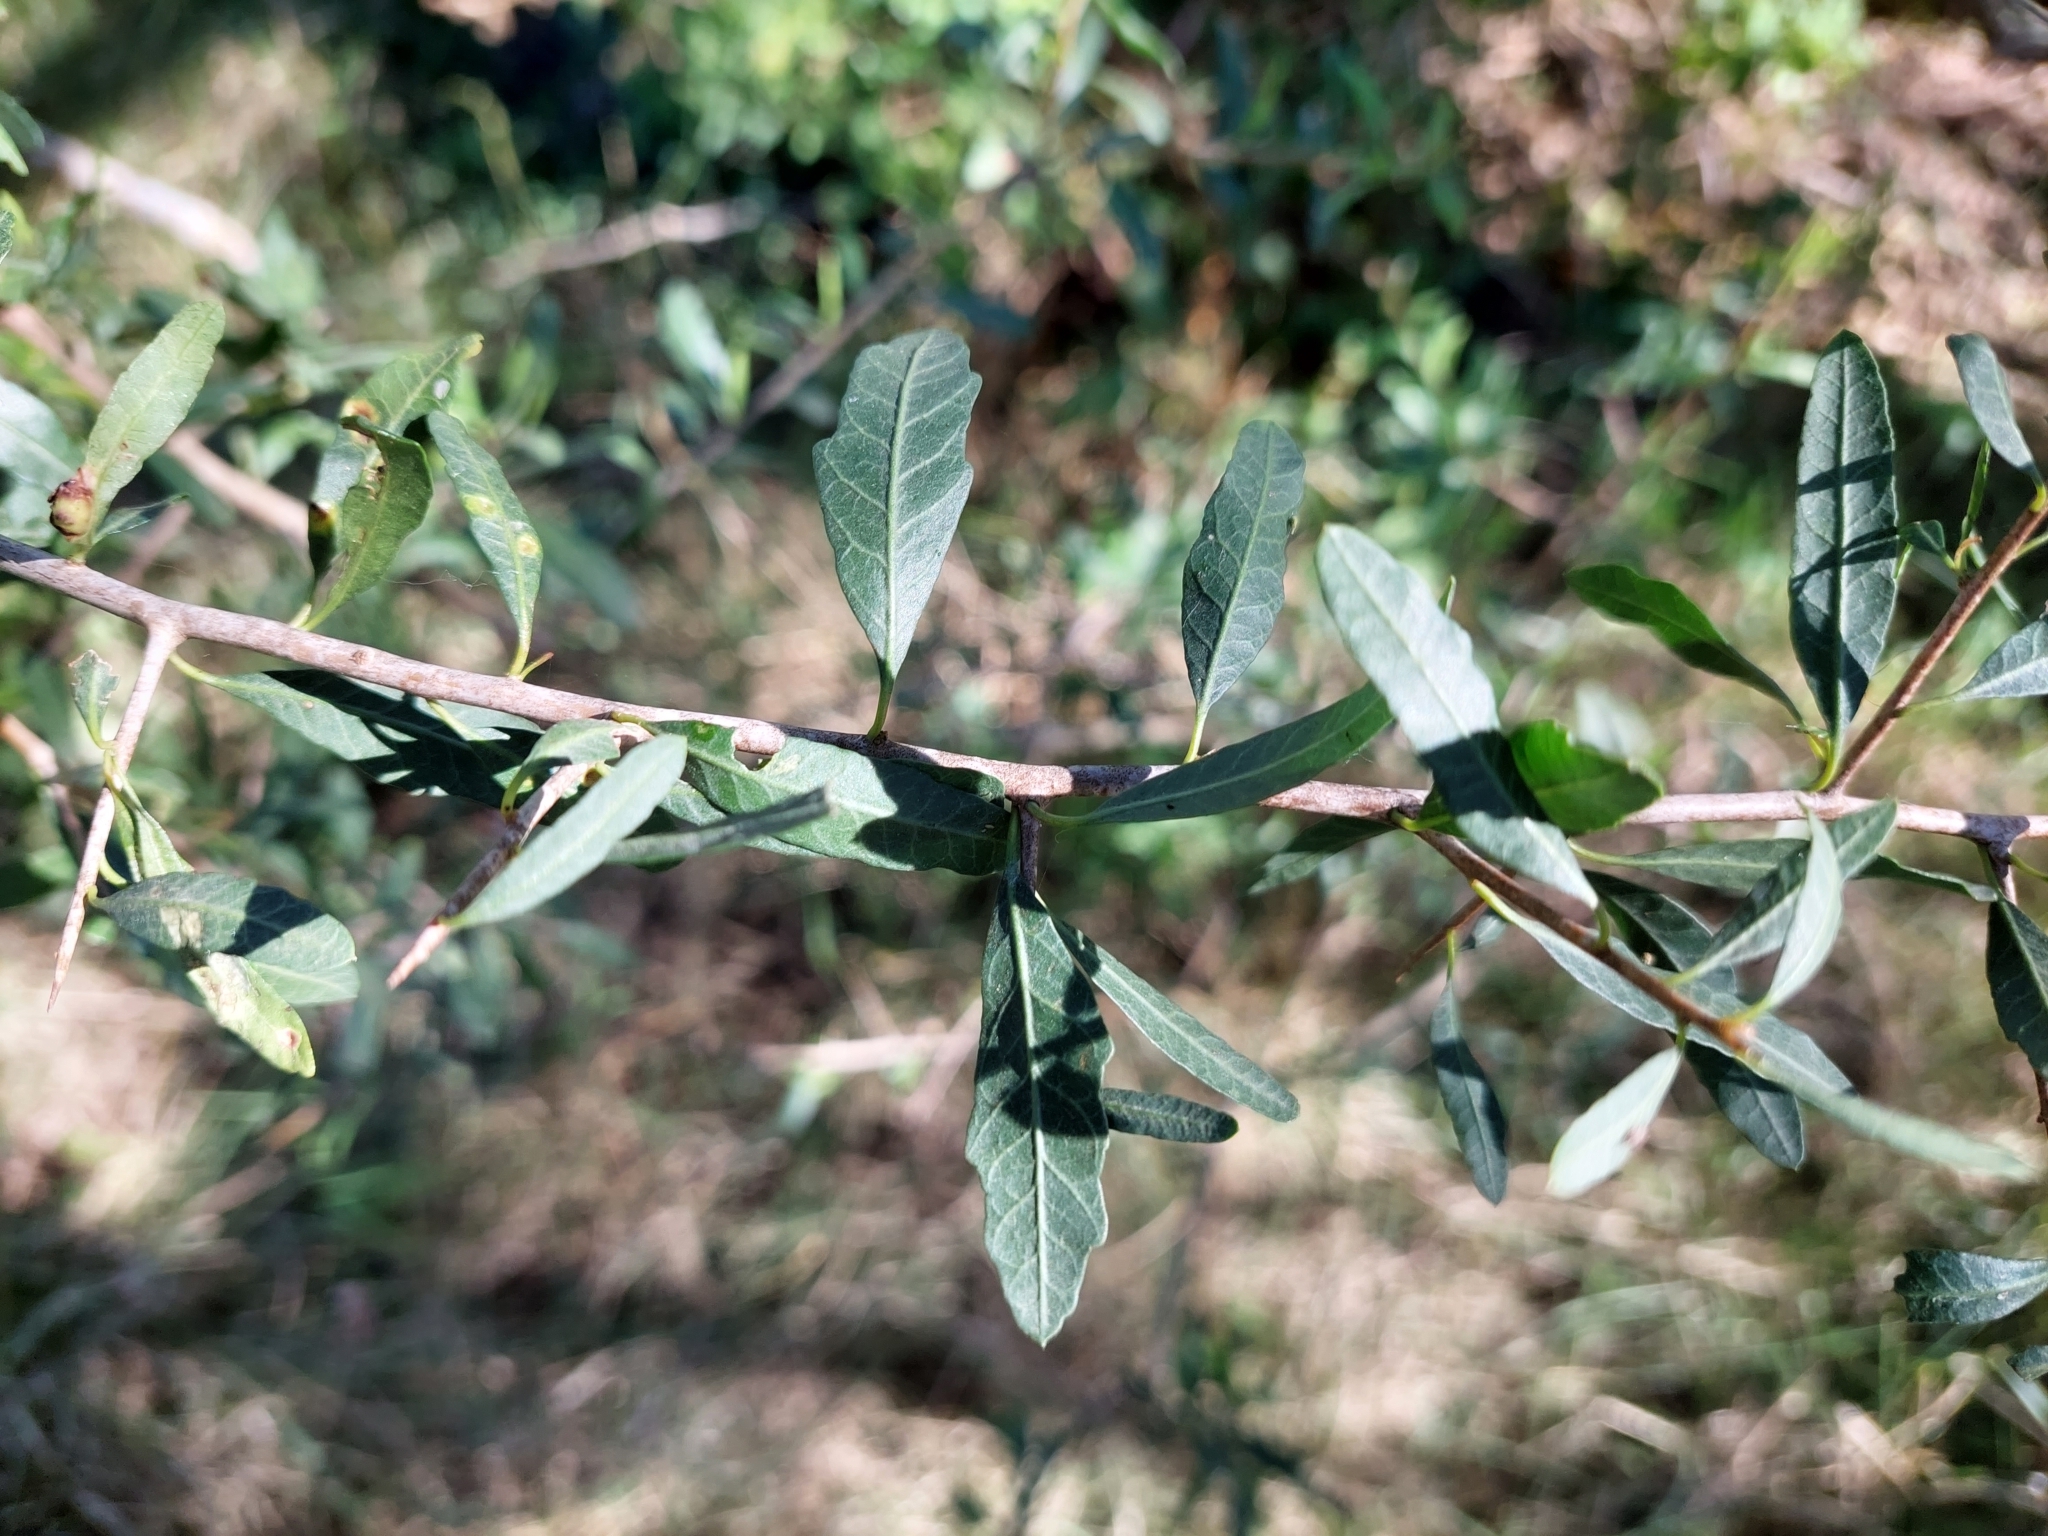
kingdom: Plantae
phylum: Tracheophyta
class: Magnoliopsida
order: Sapindales
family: Anacardiaceae
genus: Schinus
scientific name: Schinus longifolia
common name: Longleaf peppertree
